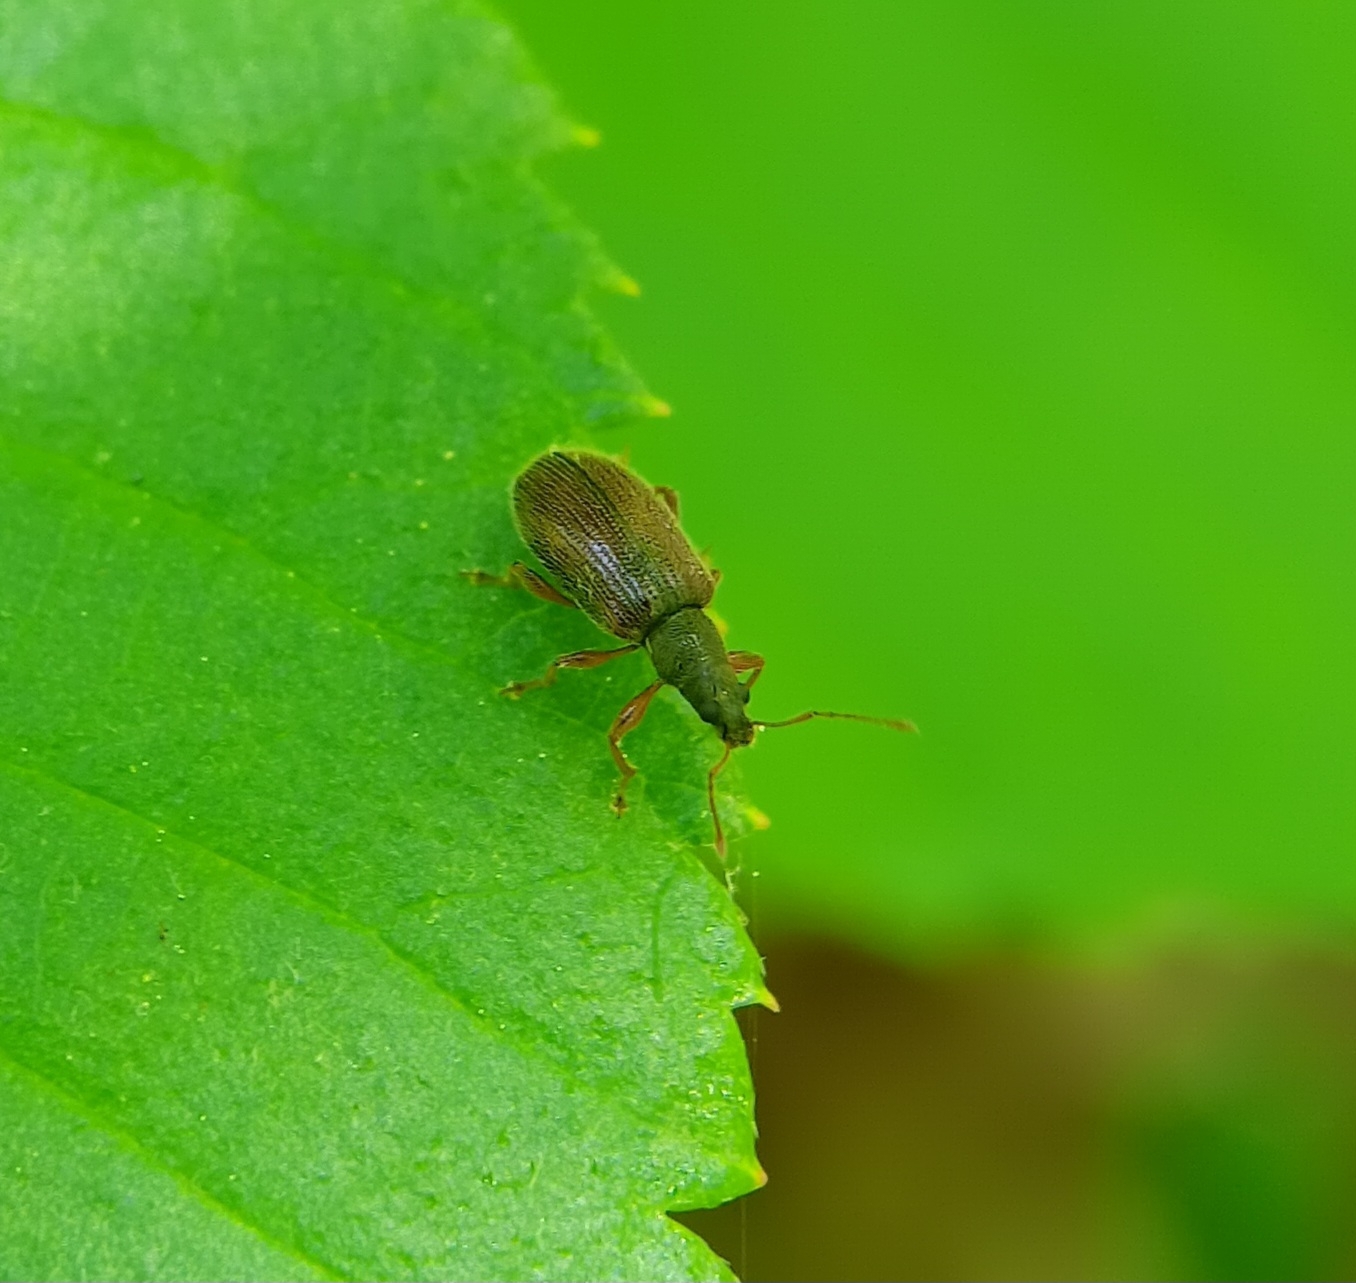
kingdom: Animalia
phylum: Arthropoda
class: Insecta
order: Coleoptera
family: Curculionidae
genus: Phyllobius
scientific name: Phyllobius oblongus
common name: Brown leaf weevil
